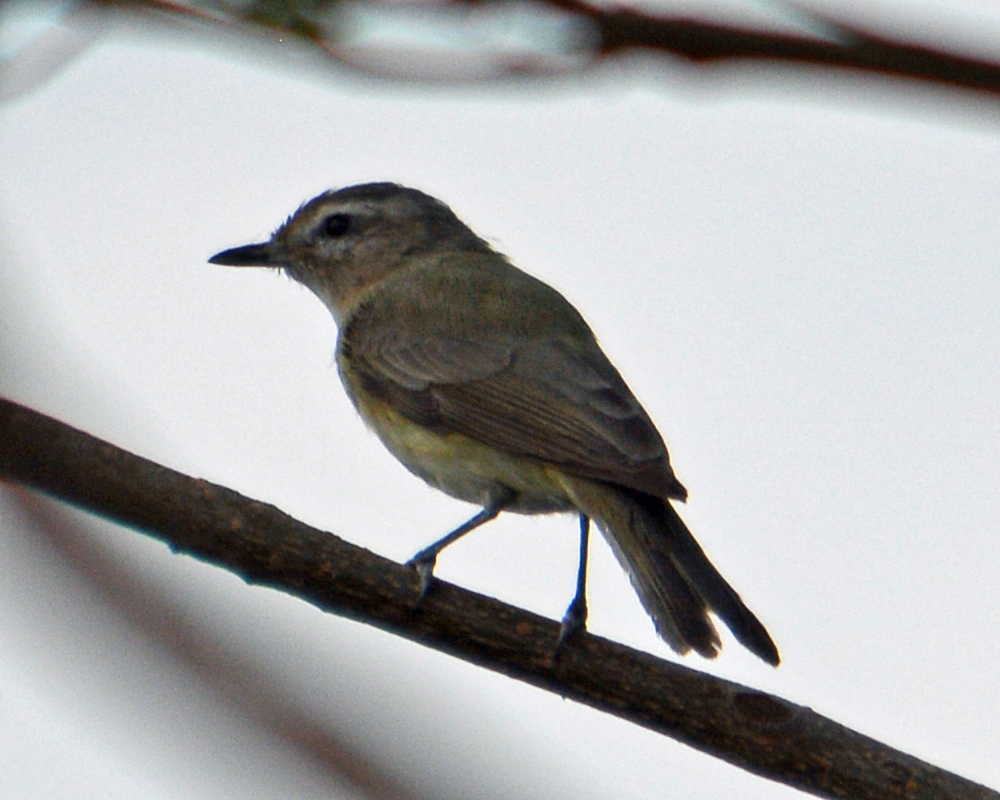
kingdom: Animalia
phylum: Chordata
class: Aves
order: Passeriformes
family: Vireonidae
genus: Vireo
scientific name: Vireo gilvus
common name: Warbling vireo
